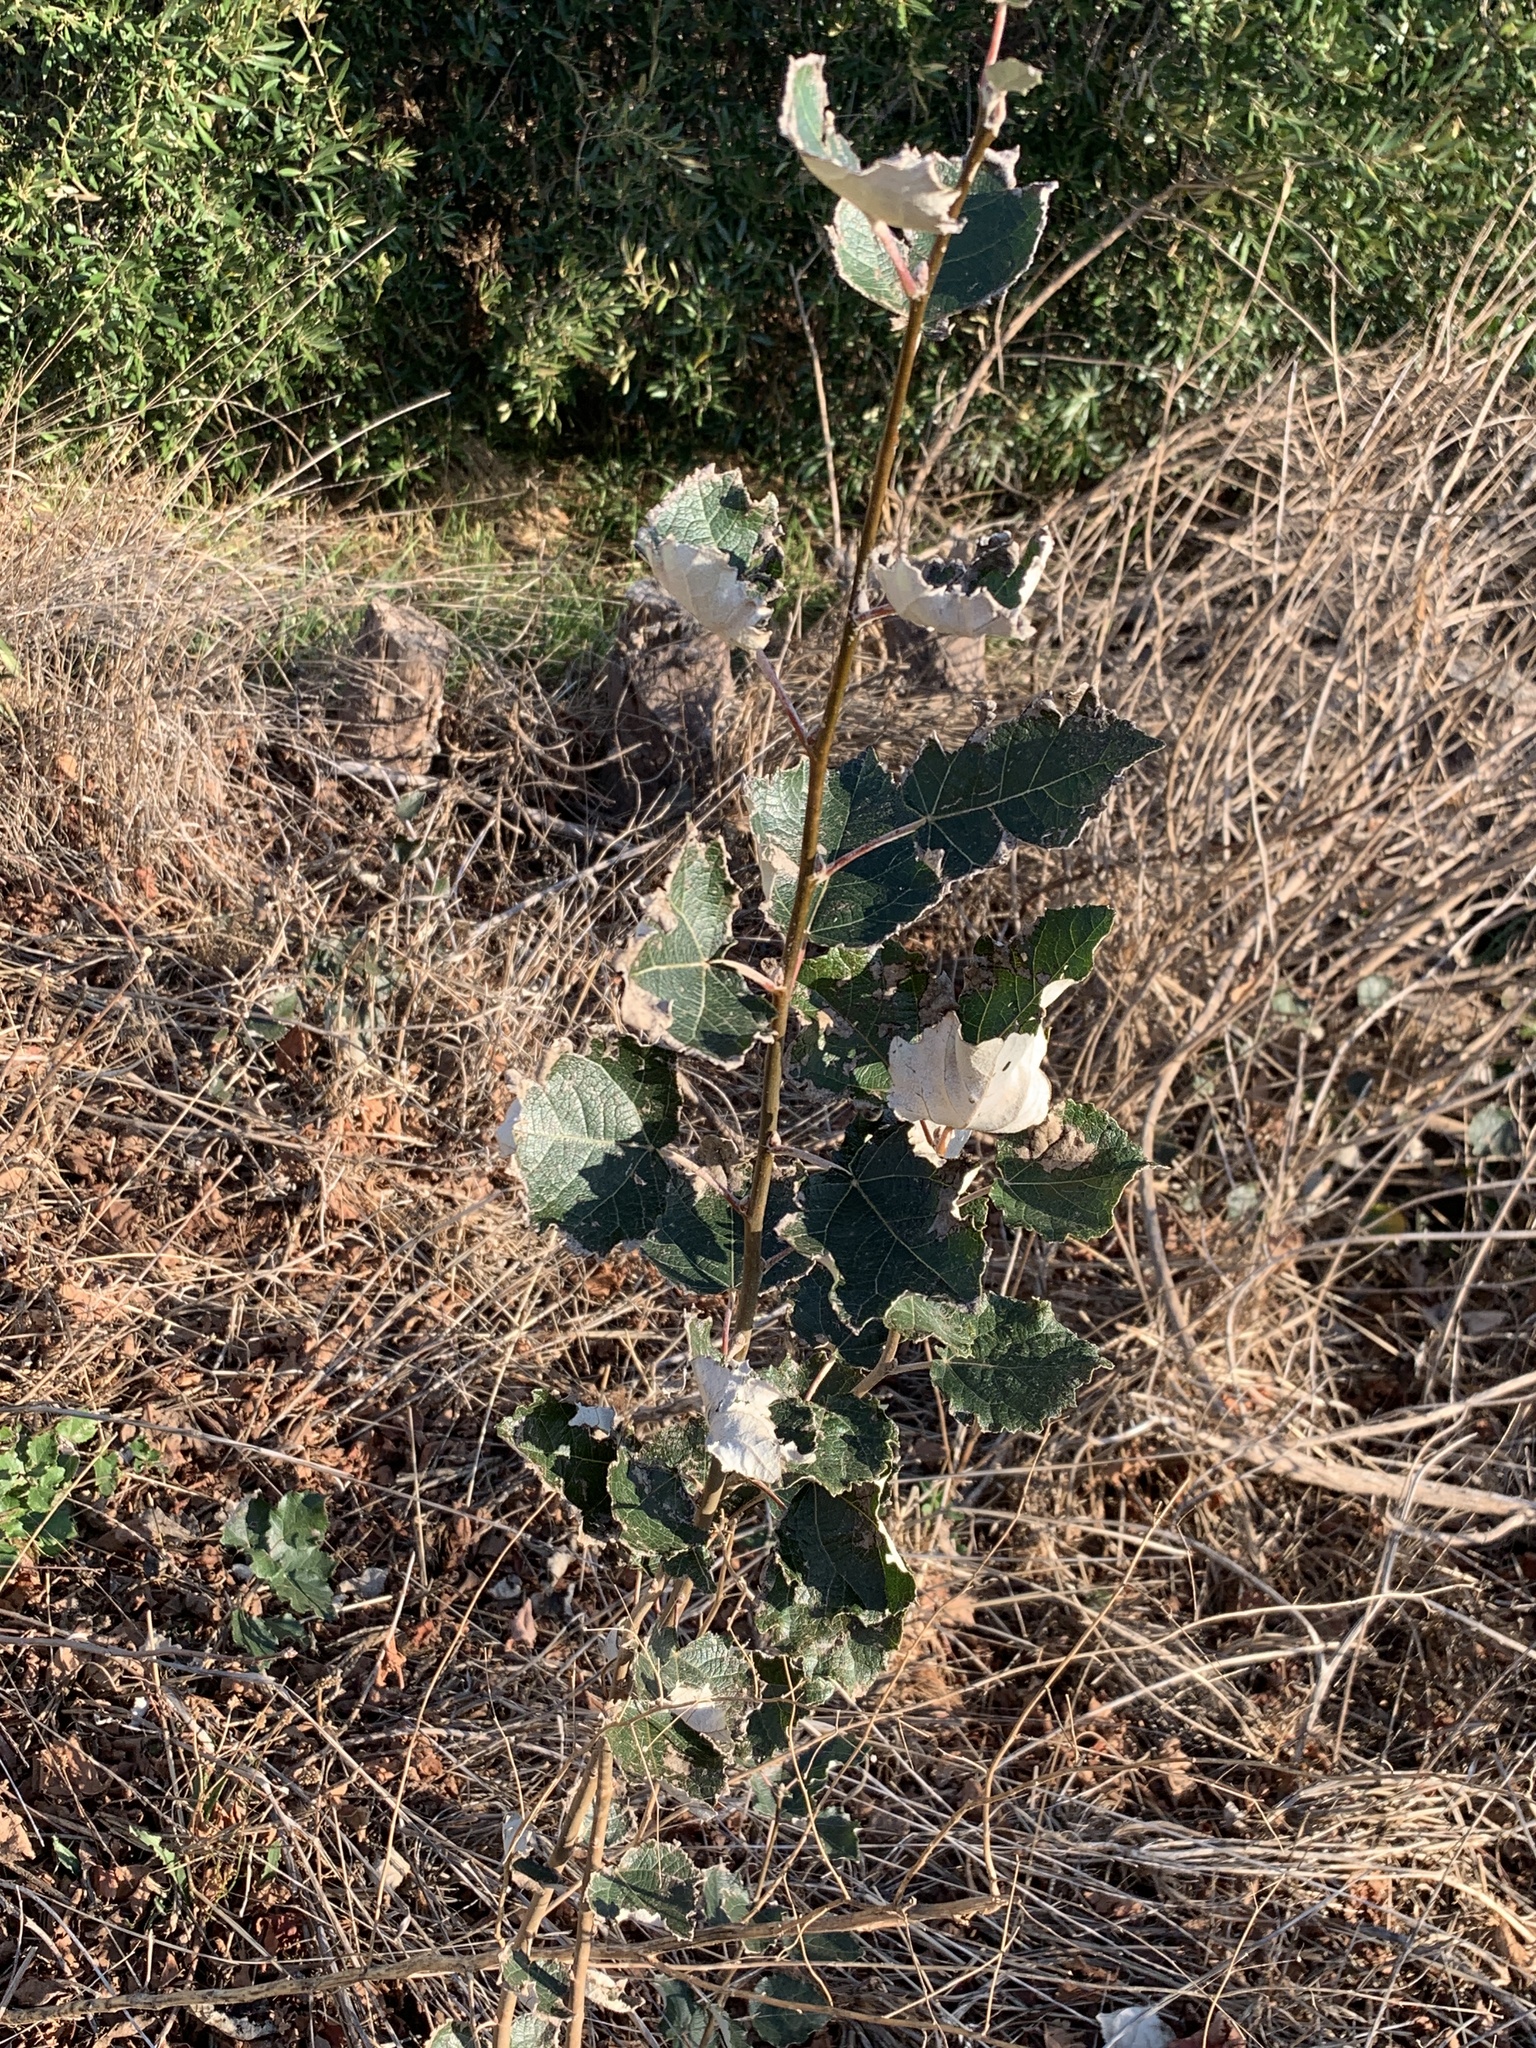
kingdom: Plantae
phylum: Tracheophyta
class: Magnoliopsida
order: Malpighiales
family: Salicaceae
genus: Populus
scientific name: Populus canescens
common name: Gray poplar
